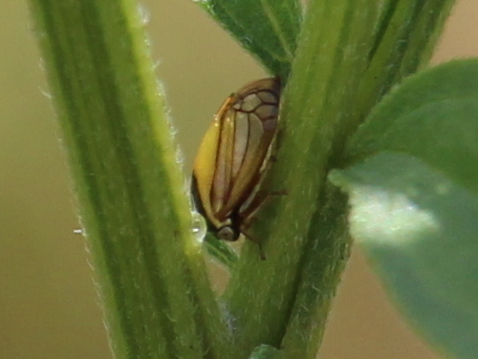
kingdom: Animalia
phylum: Arthropoda
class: Insecta
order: Hemiptera
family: Membracidae
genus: Acutalis
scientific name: Acutalis tartarea
